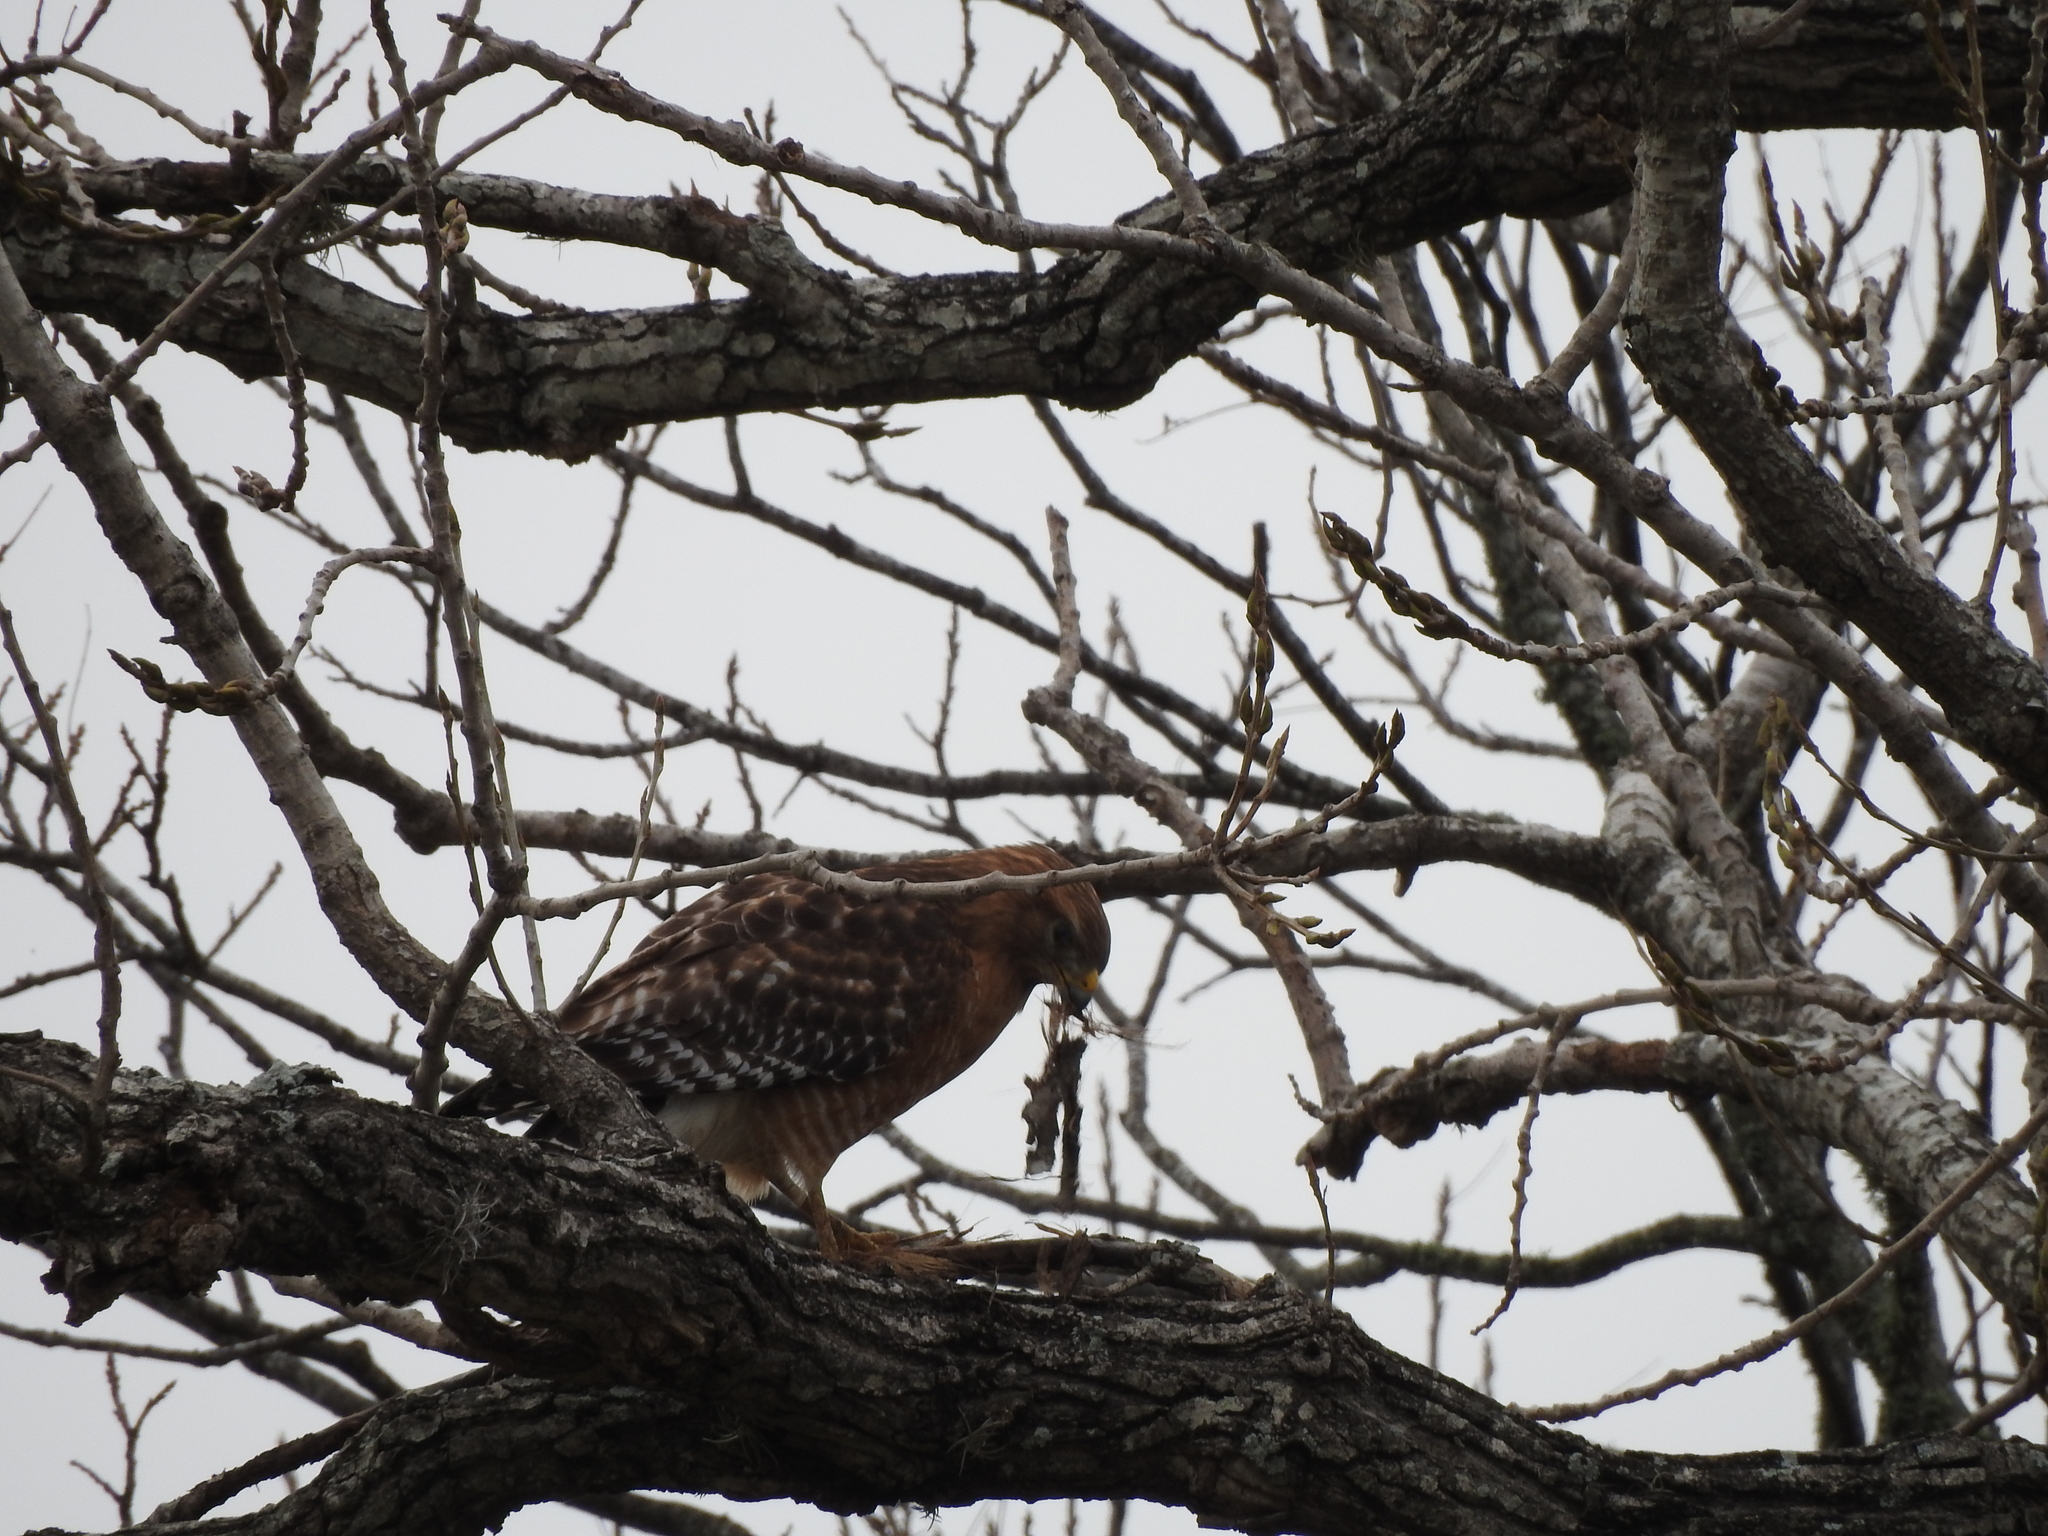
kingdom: Animalia
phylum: Chordata
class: Aves
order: Accipitriformes
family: Accipitridae
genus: Buteo
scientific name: Buteo lineatus
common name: Red-shouldered hawk
